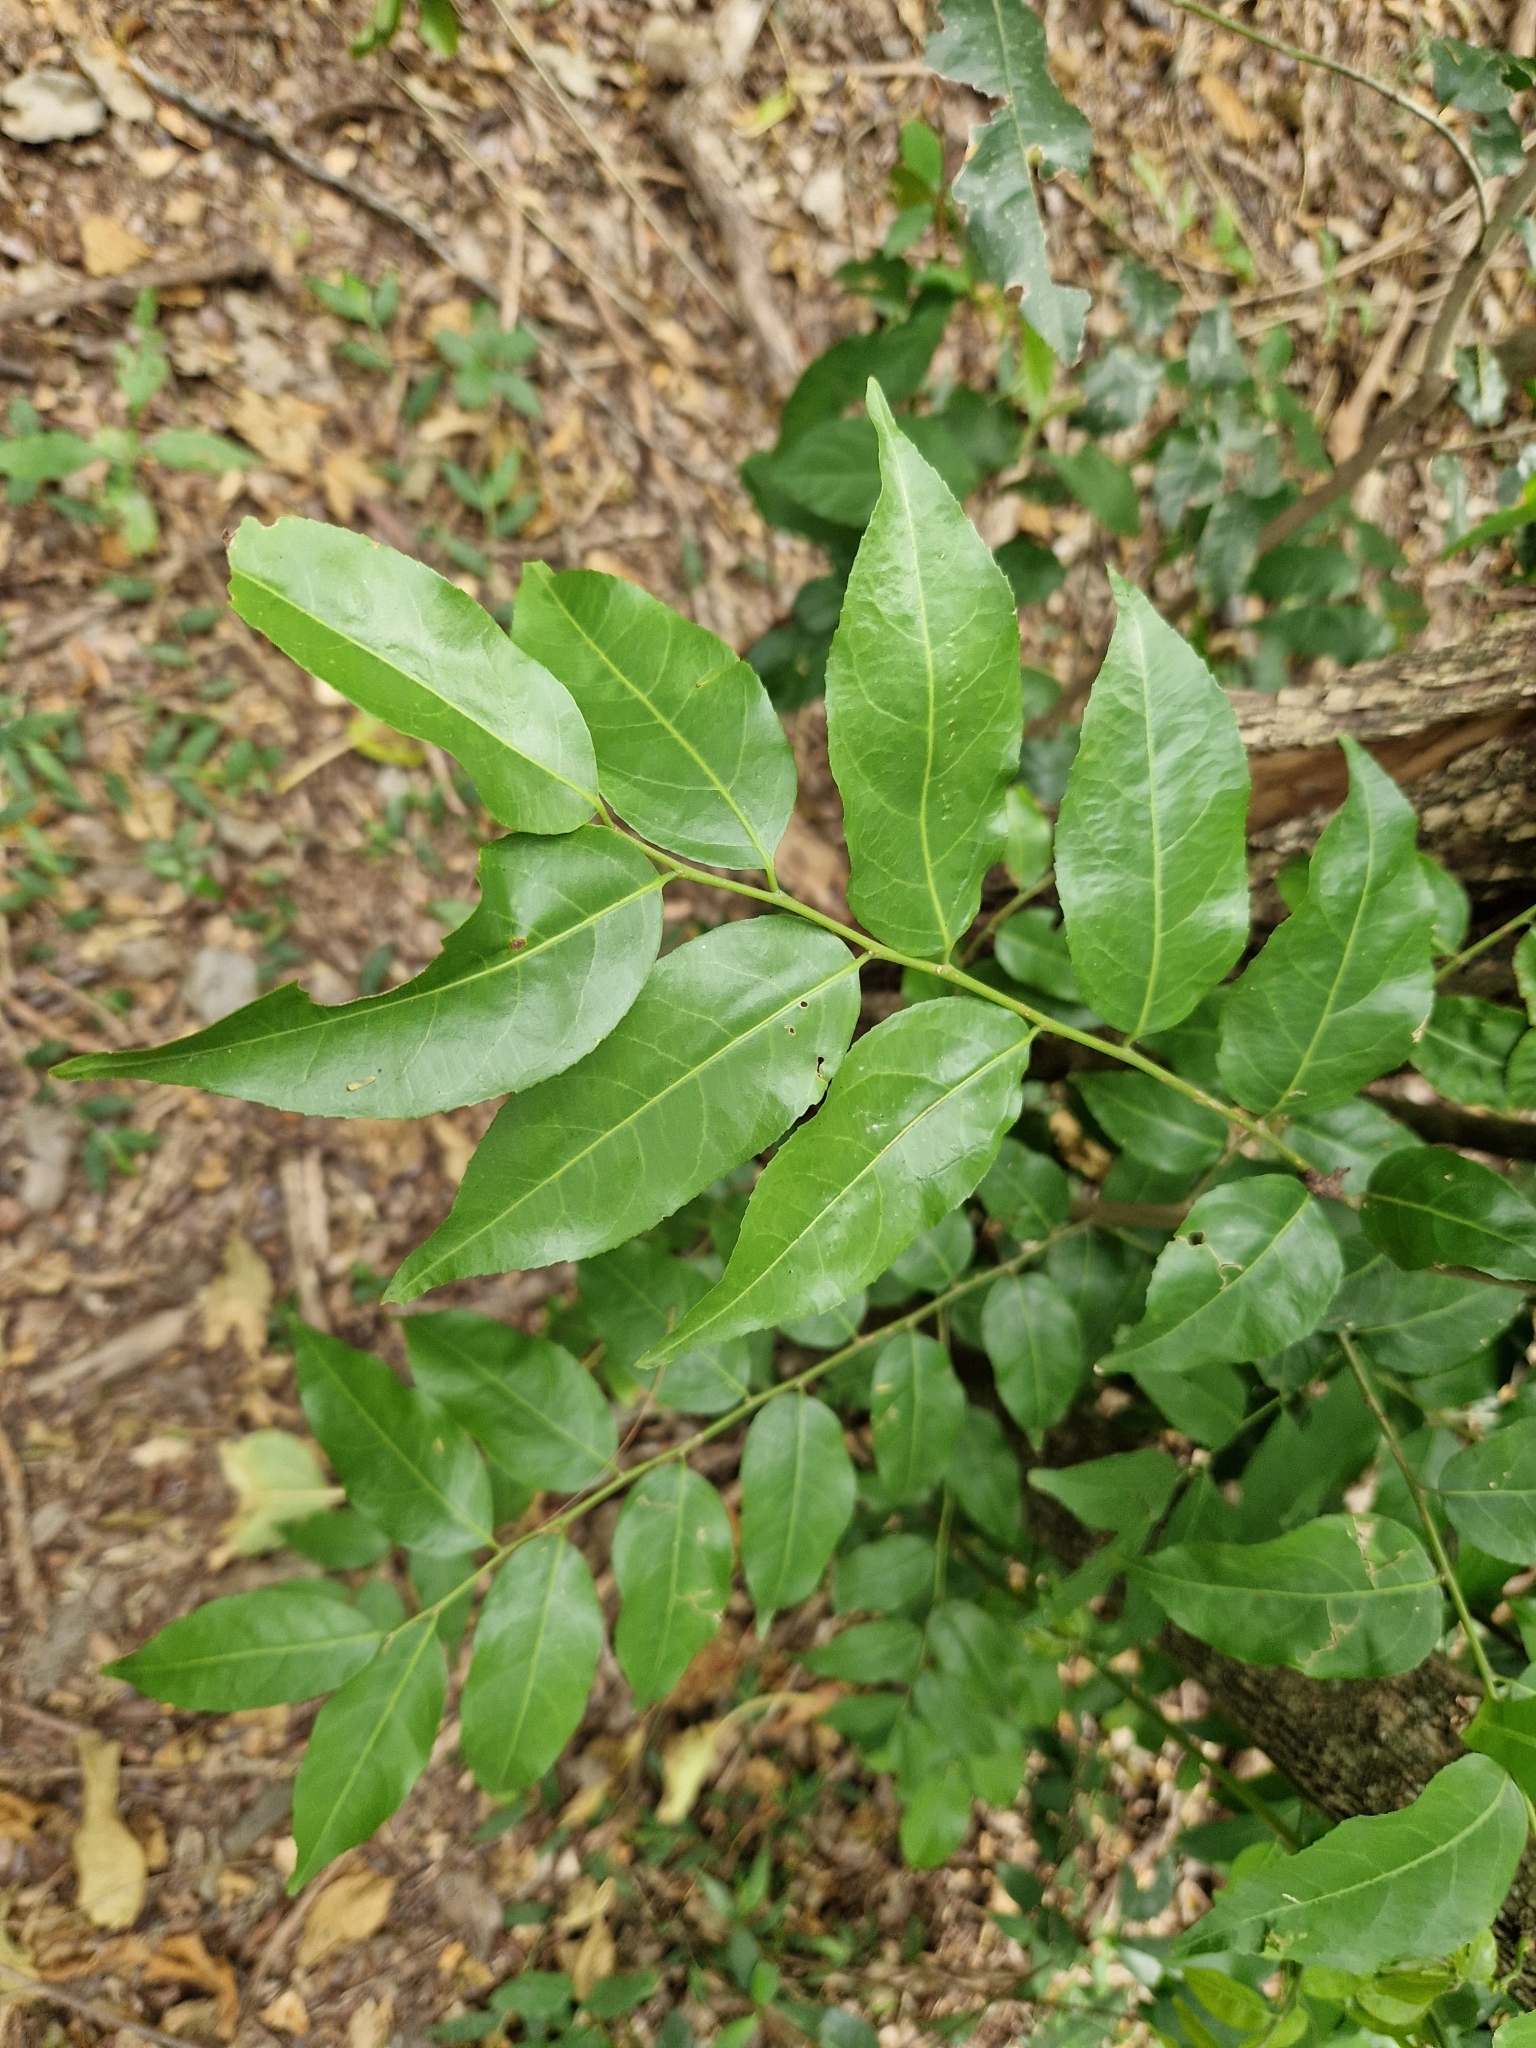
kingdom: Plantae
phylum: Tracheophyta
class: Magnoliopsida
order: Malpighiales
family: Salicaceae
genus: Casearia
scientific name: Casearia sylvestris
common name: Wild sage
